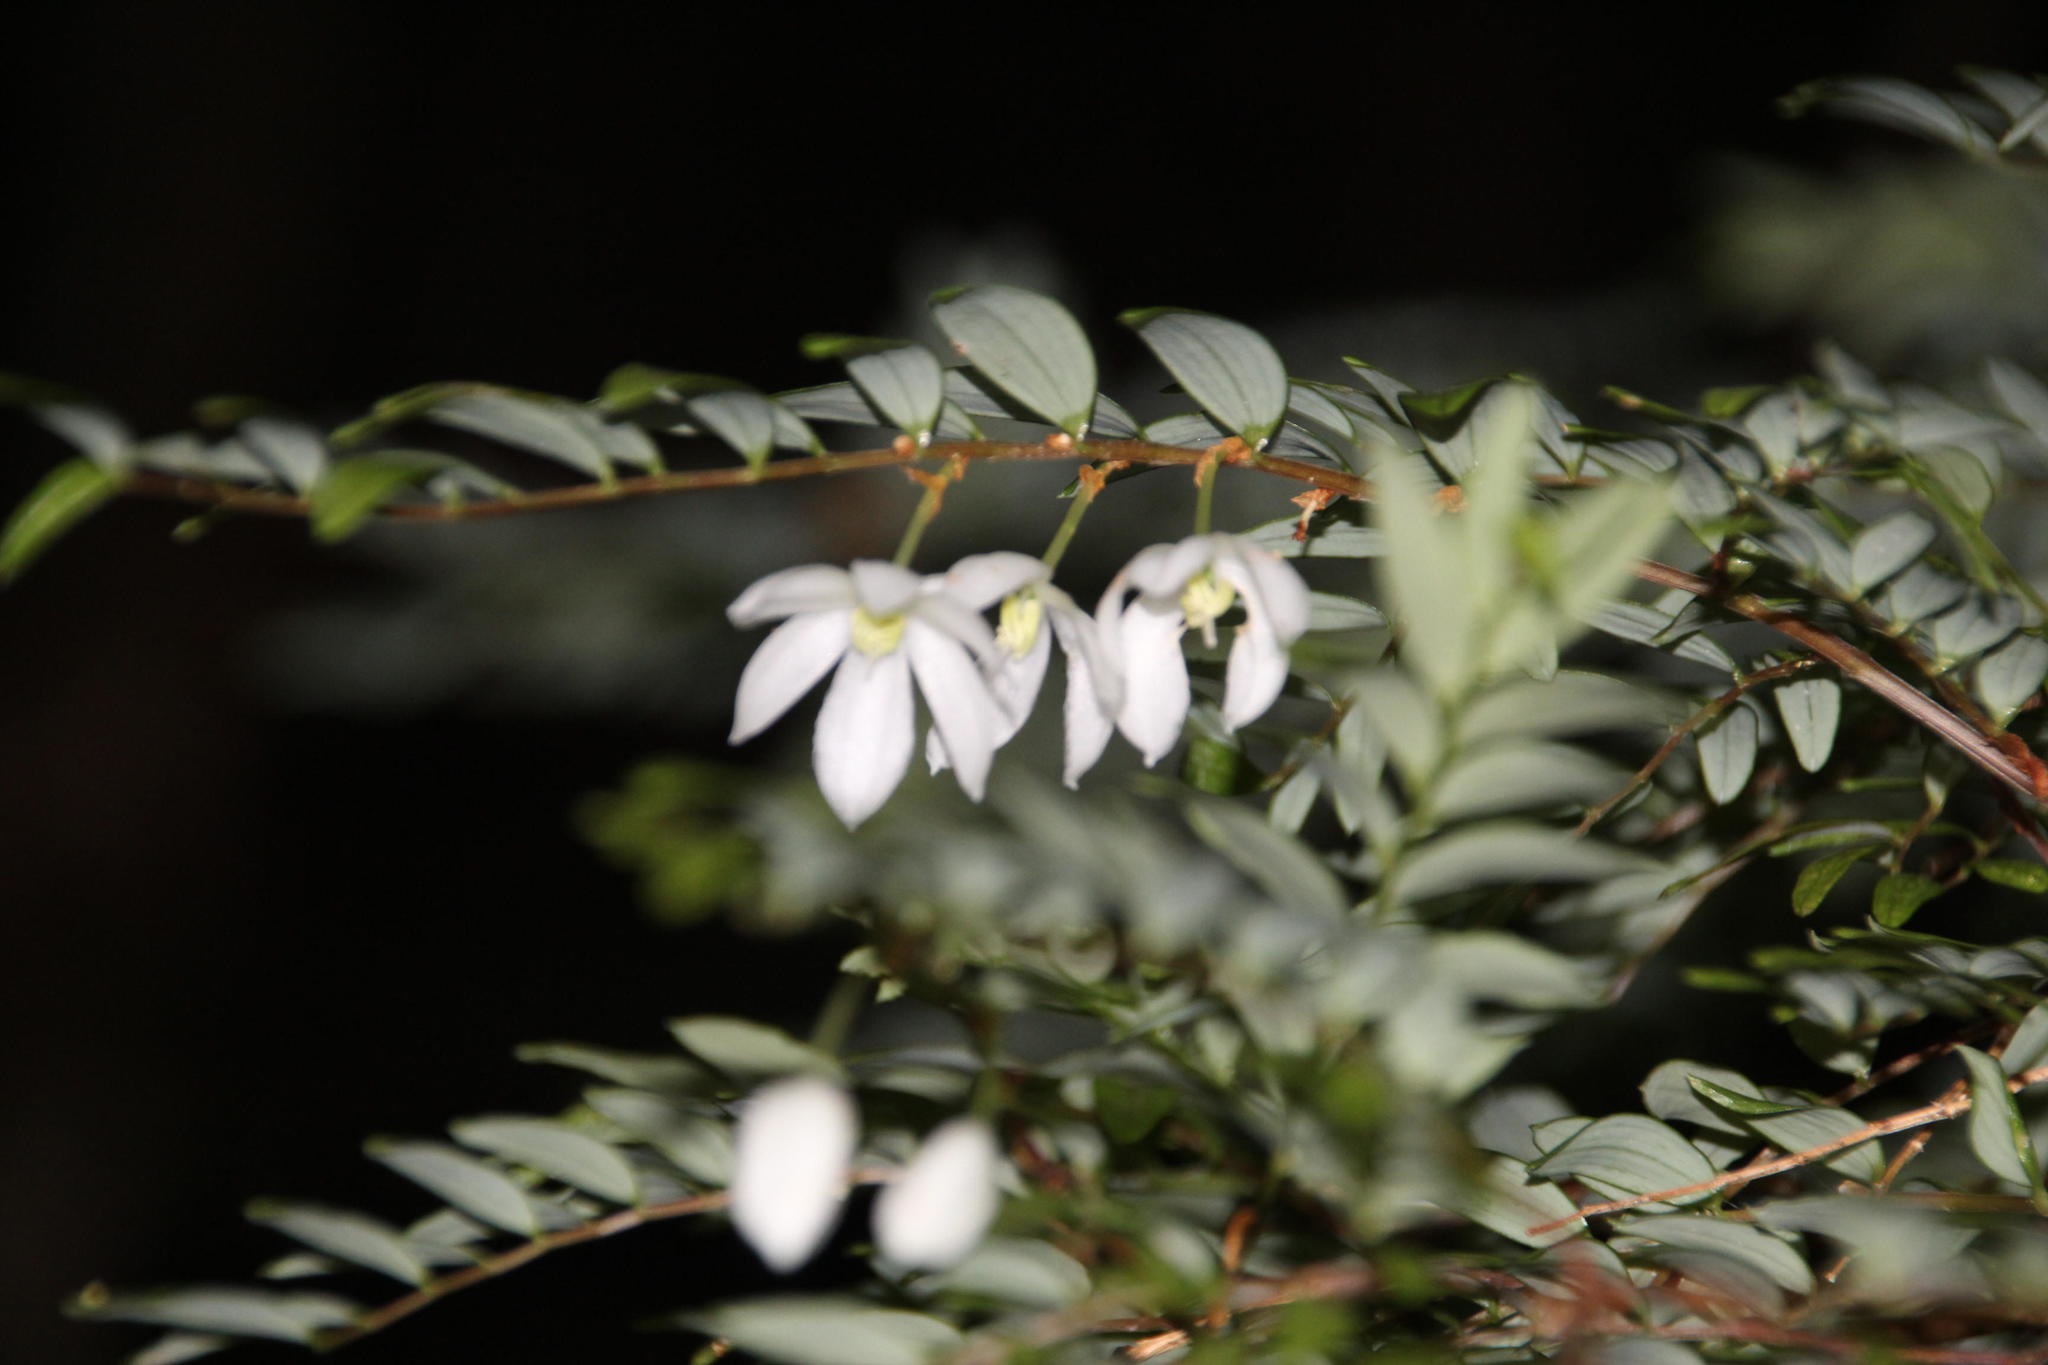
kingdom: Plantae
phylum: Tracheophyta
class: Liliopsida
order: Liliales
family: Alstroemeriaceae
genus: Luzuriaga
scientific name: Luzuriaga polyphylla
